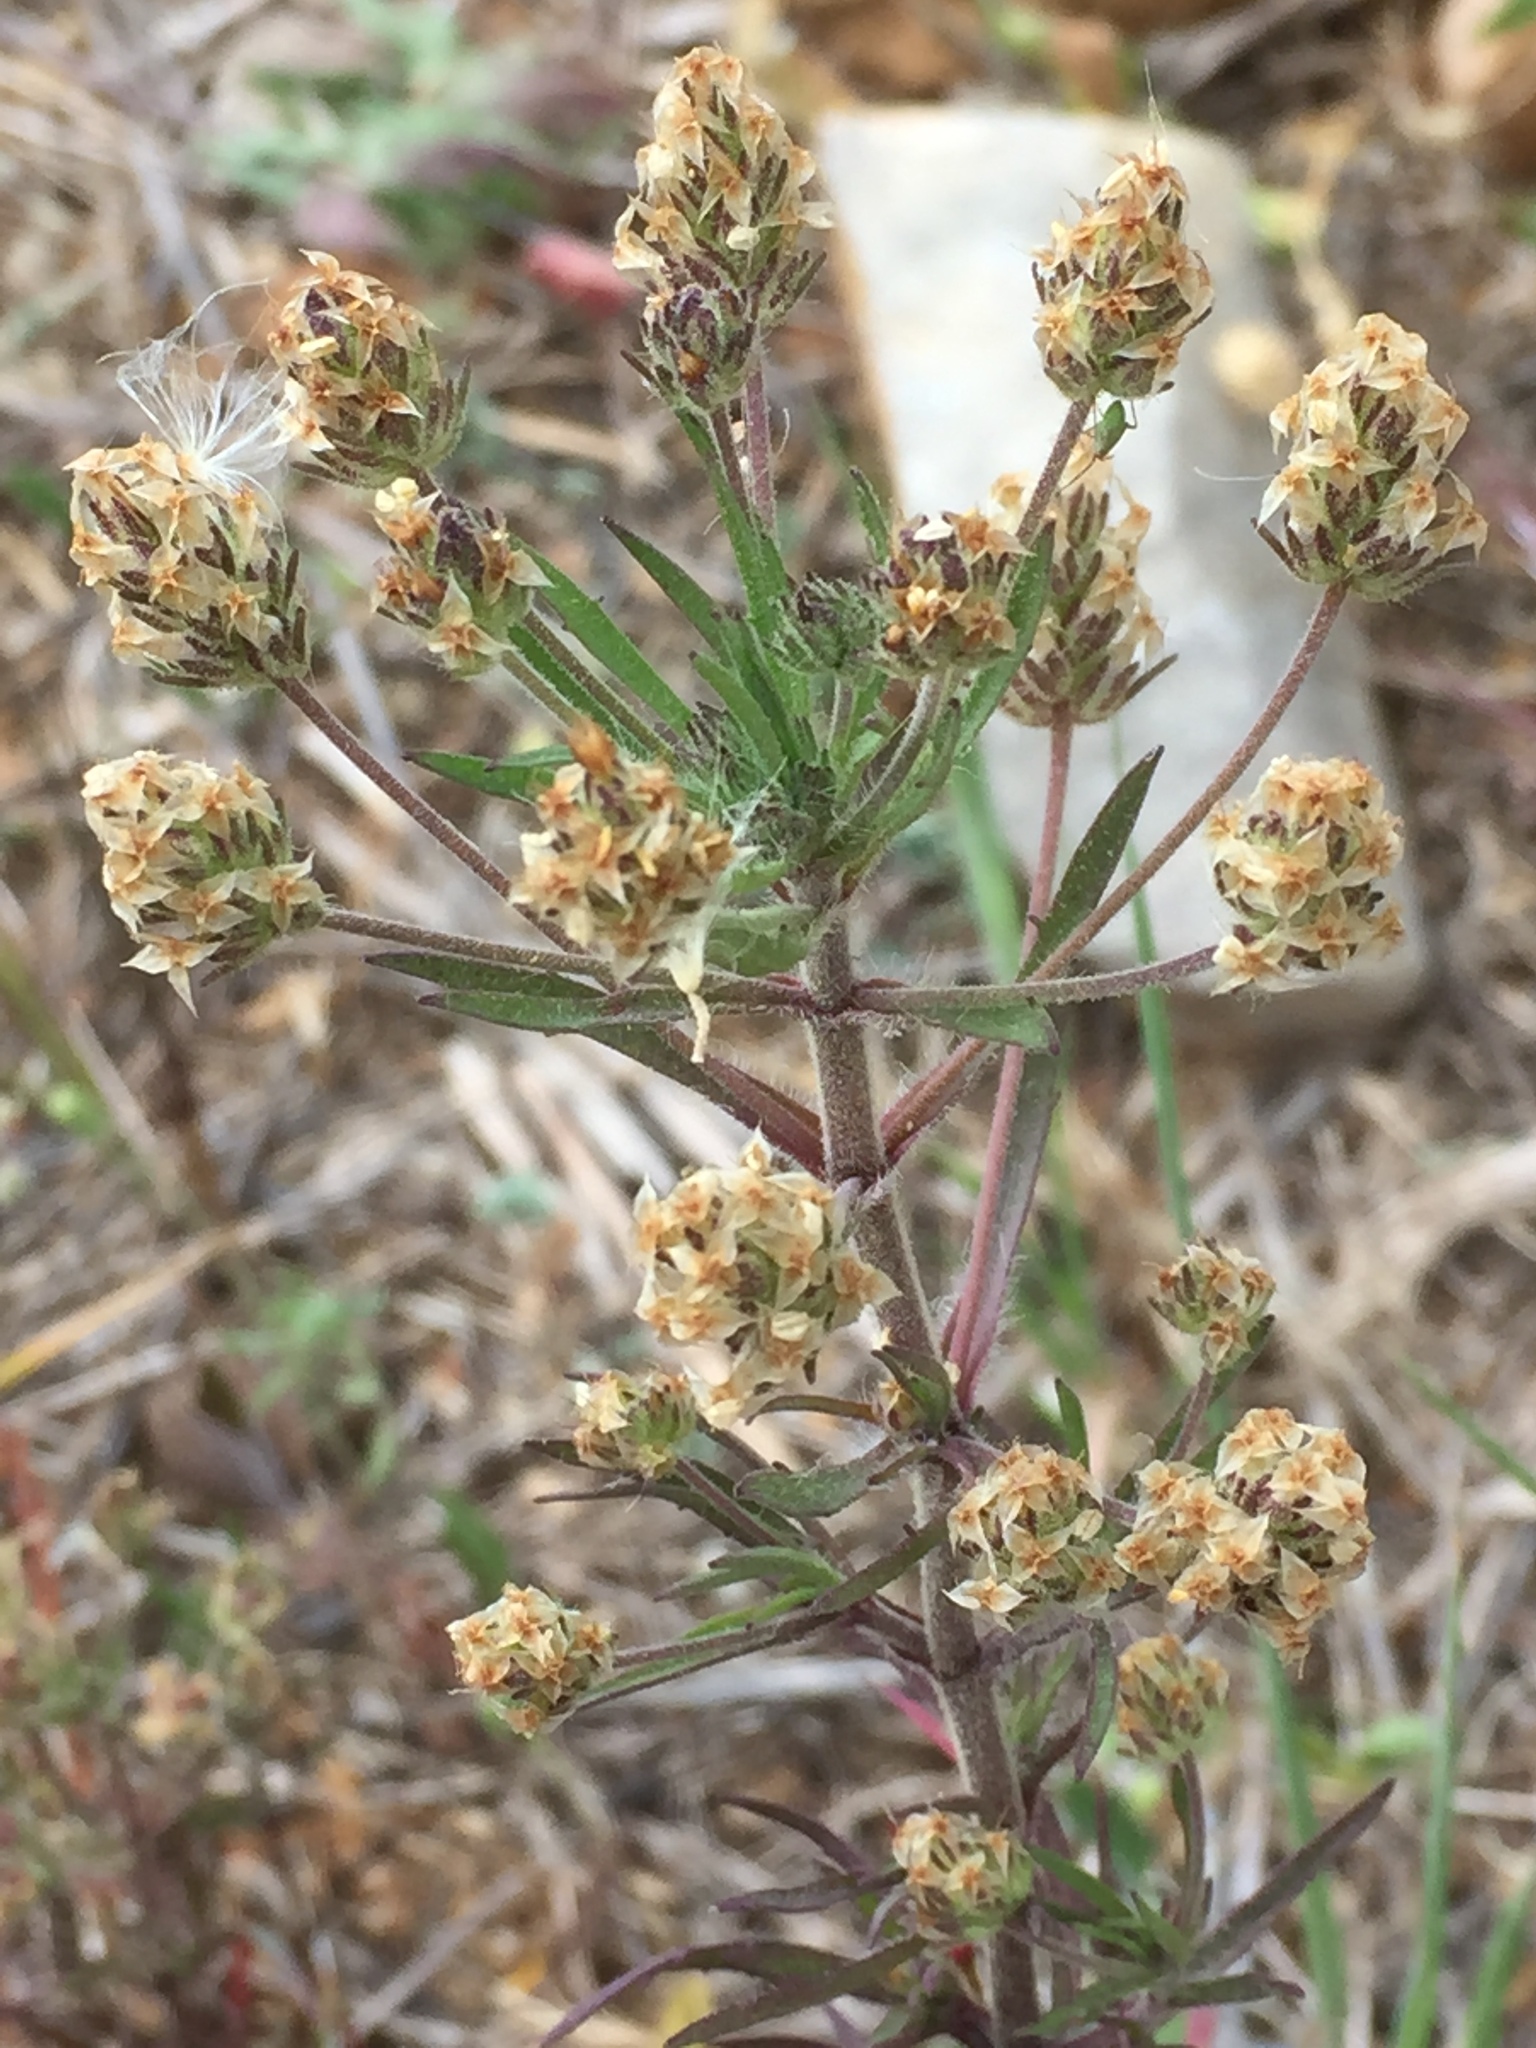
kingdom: Plantae
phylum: Tracheophyta
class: Magnoliopsida
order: Lamiales
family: Plantaginaceae
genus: Plantago
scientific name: Plantago afra
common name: Glandular plantain
